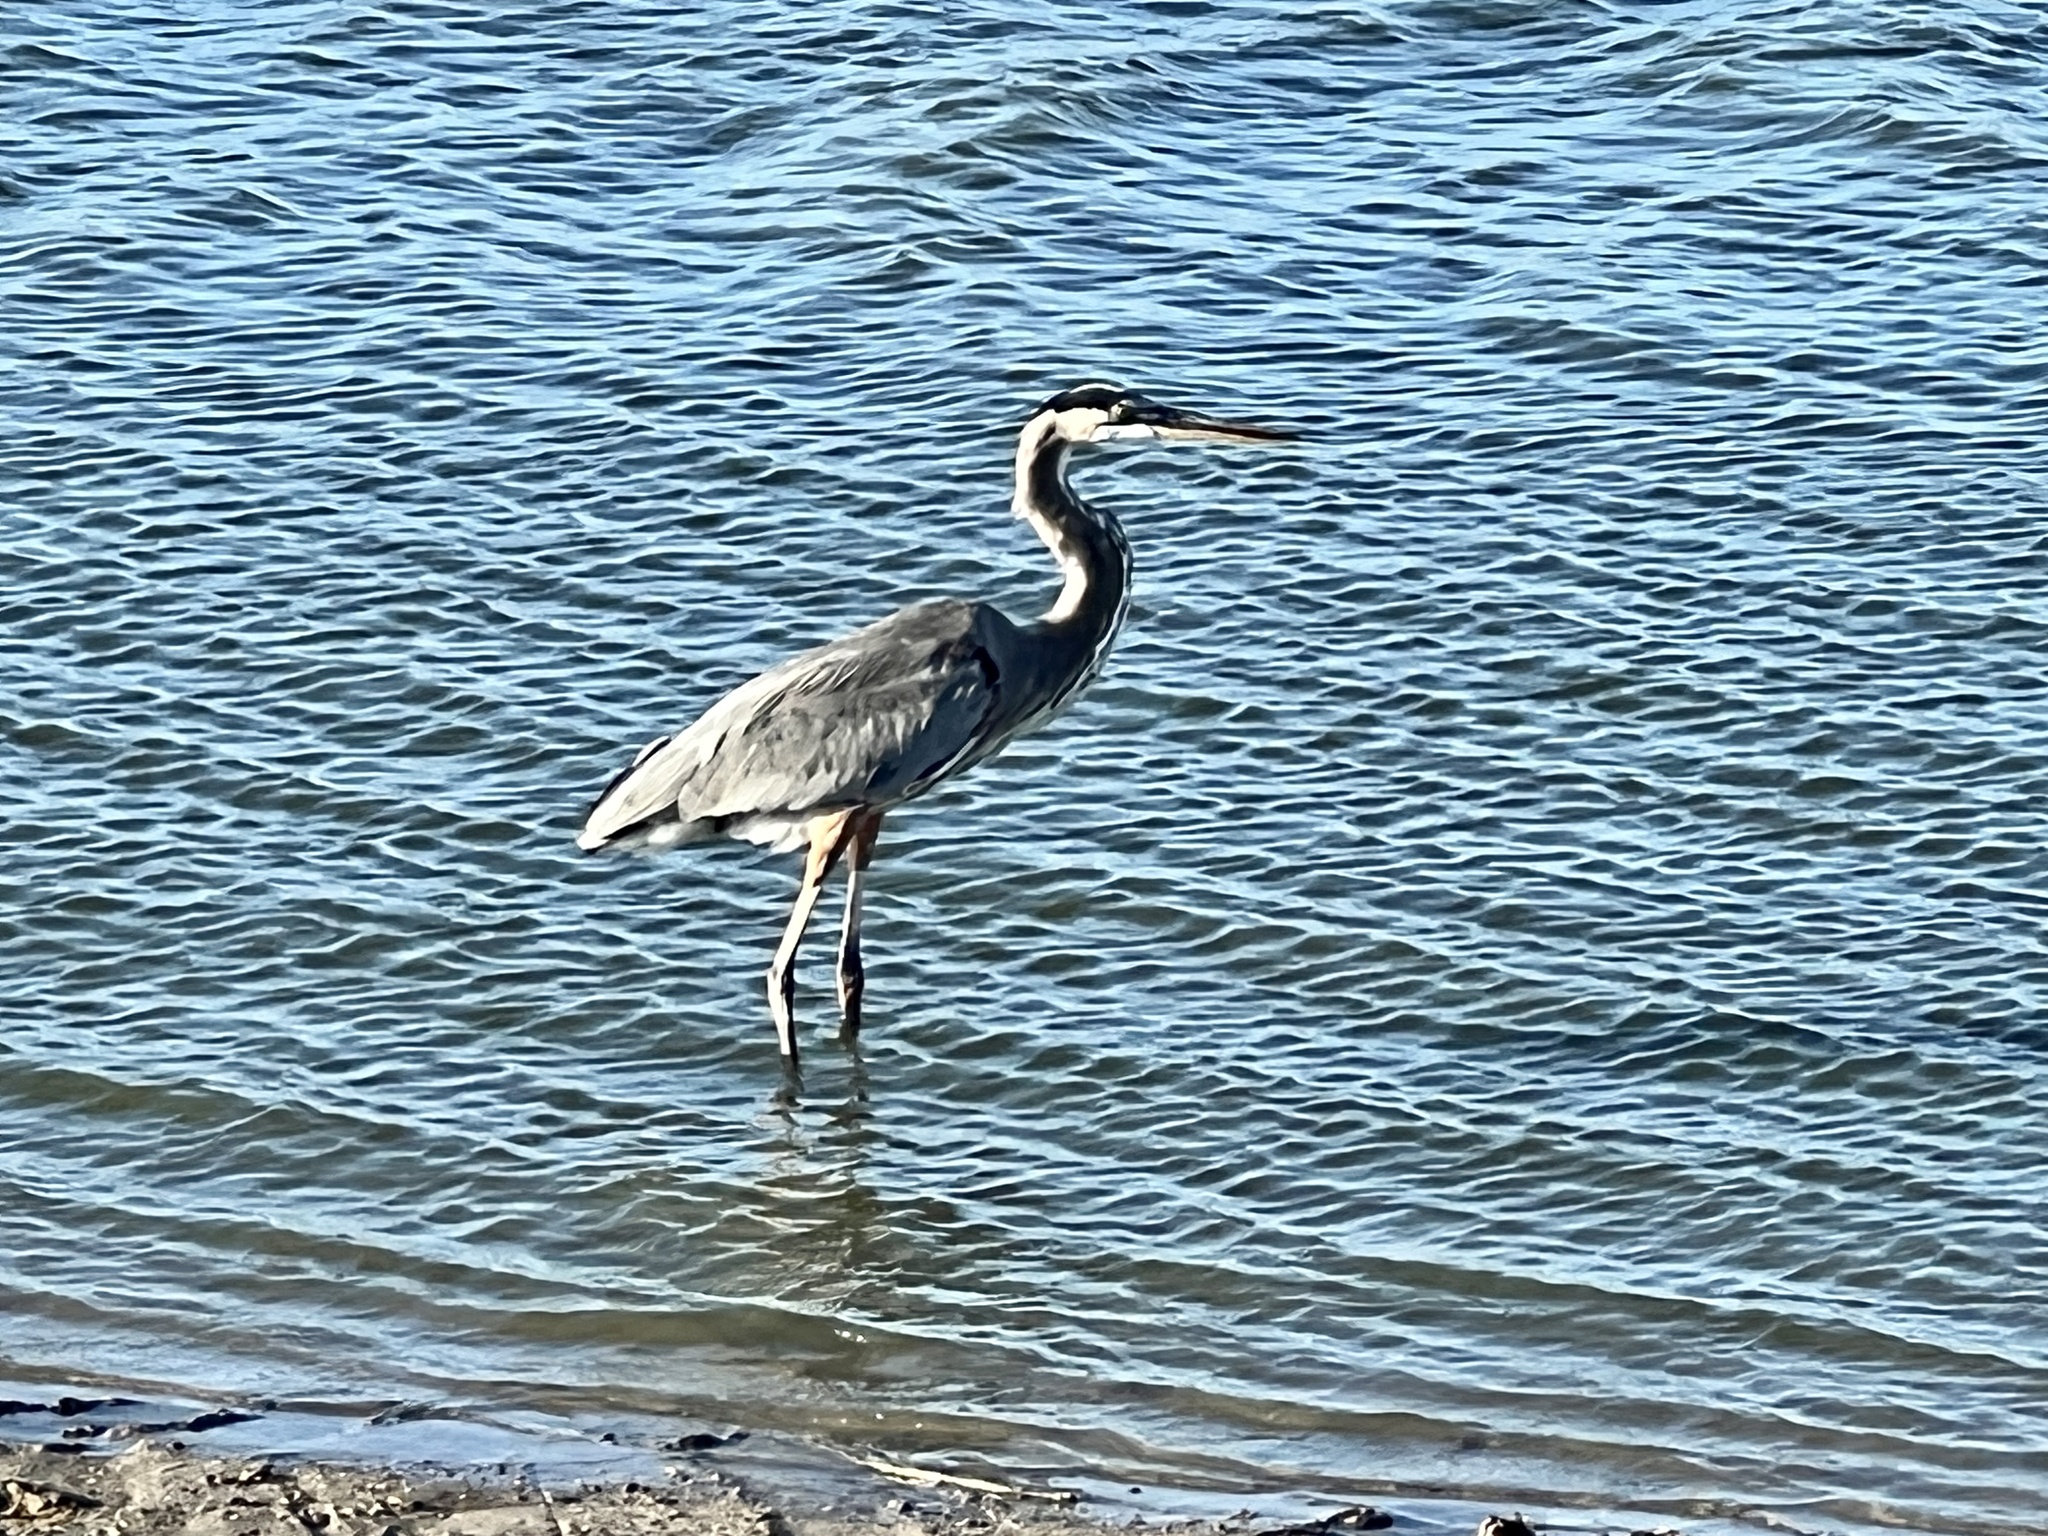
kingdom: Animalia
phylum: Chordata
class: Aves
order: Pelecaniformes
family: Ardeidae
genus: Ardea
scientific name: Ardea herodias
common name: Great blue heron
